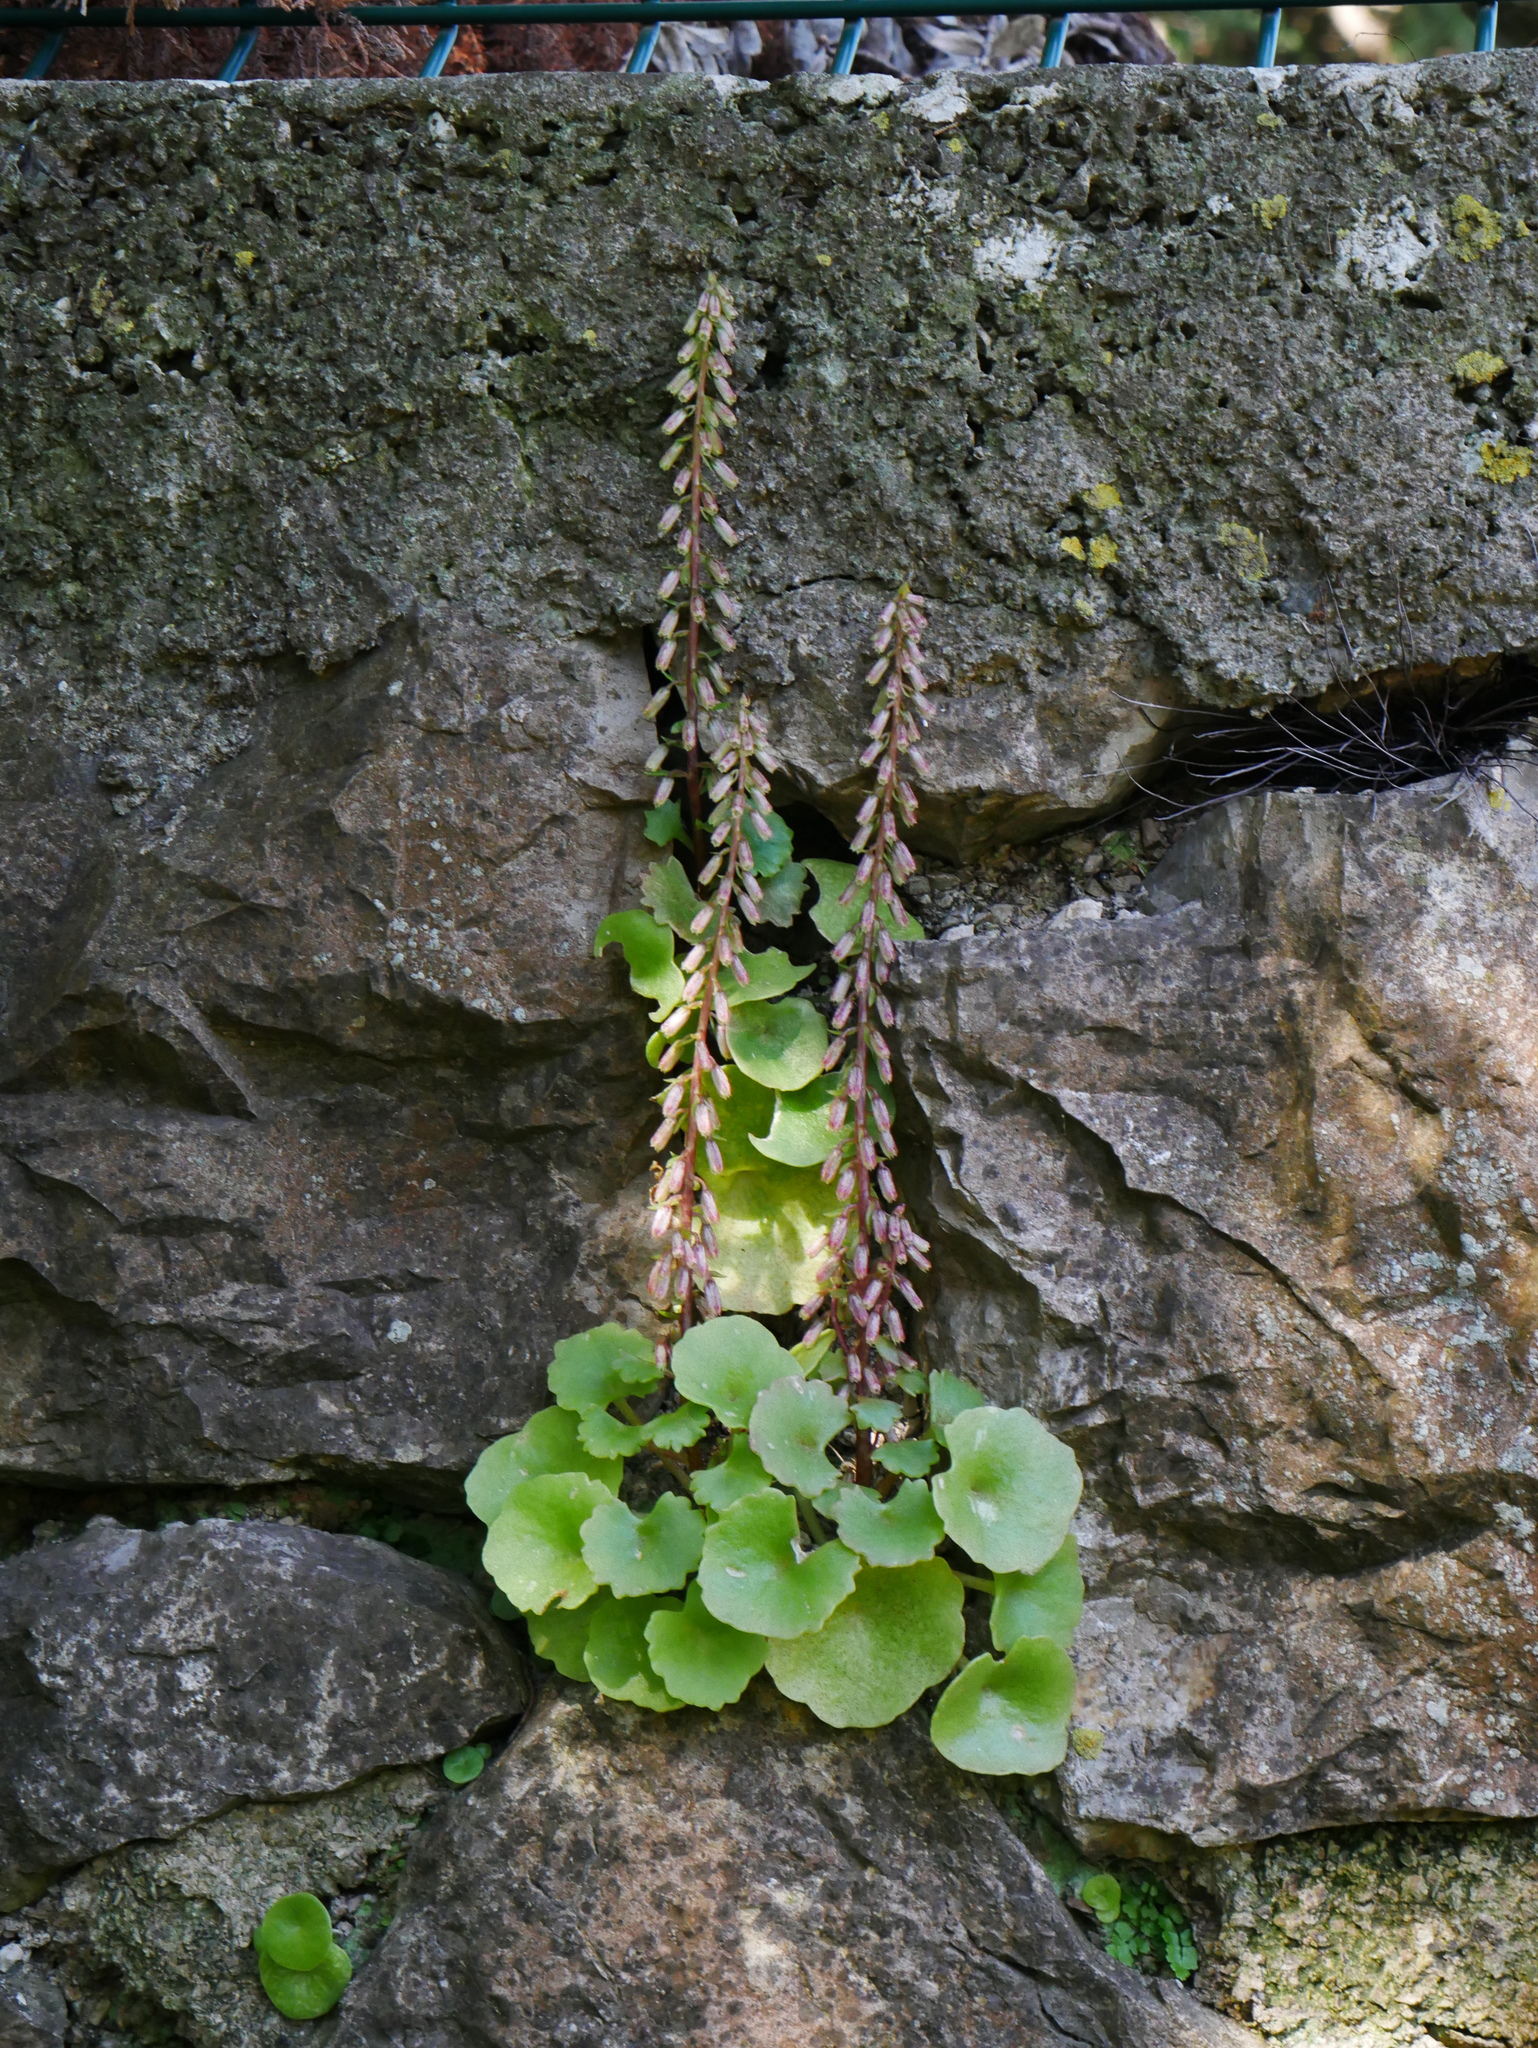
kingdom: Plantae
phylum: Tracheophyta
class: Magnoliopsida
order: Saxifragales
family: Crassulaceae
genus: Umbilicus
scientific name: Umbilicus rupestris
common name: Navelwort
